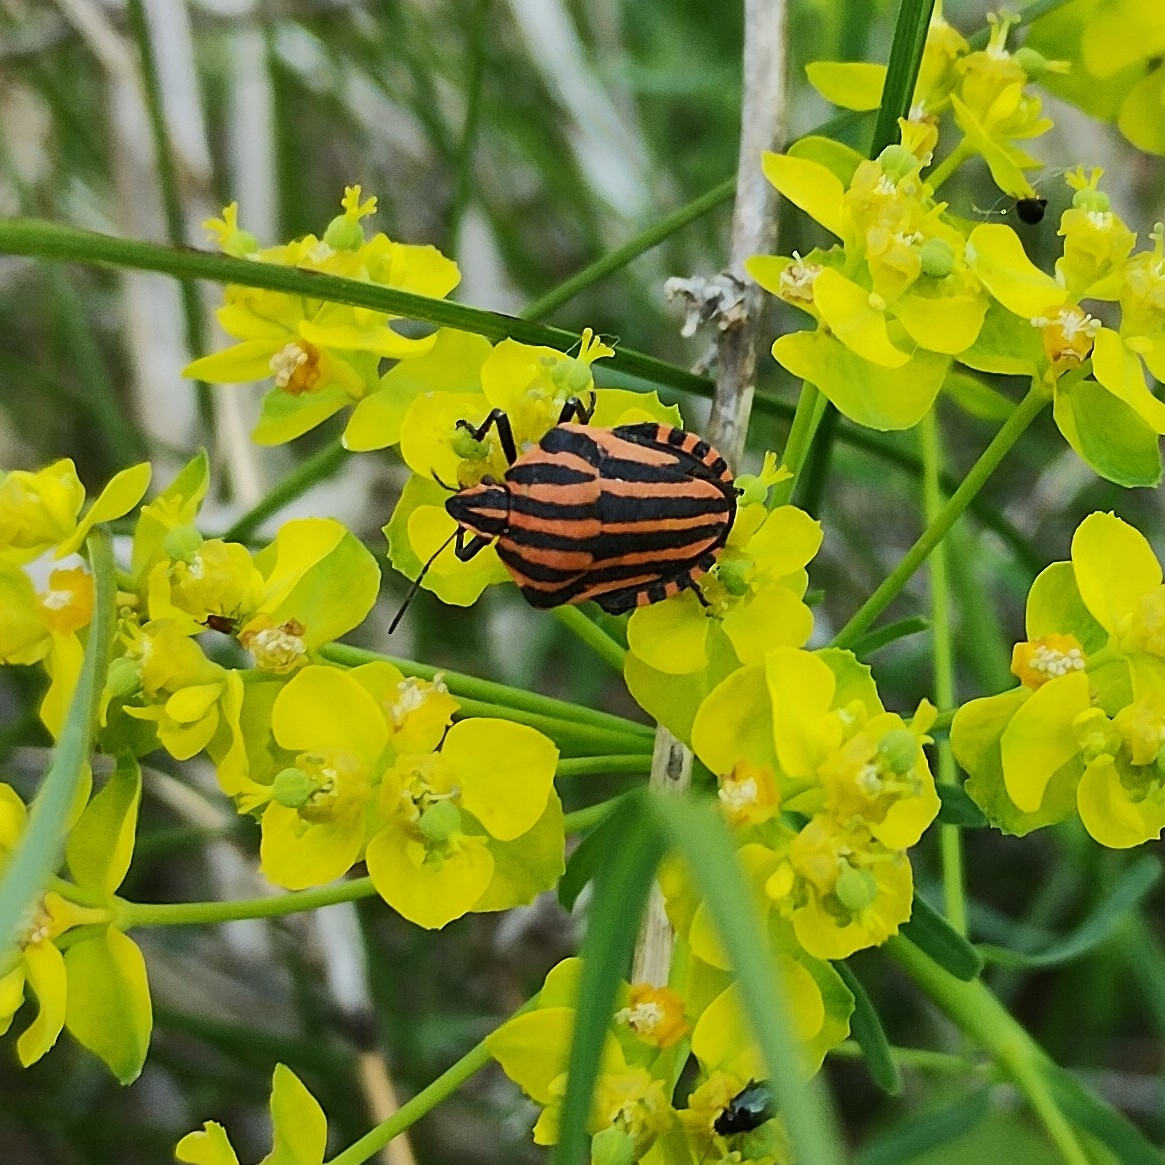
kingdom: Animalia
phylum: Arthropoda
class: Insecta
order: Hemiptera
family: Pentatomidae
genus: Graphosoma
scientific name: Graphosoma italicum
